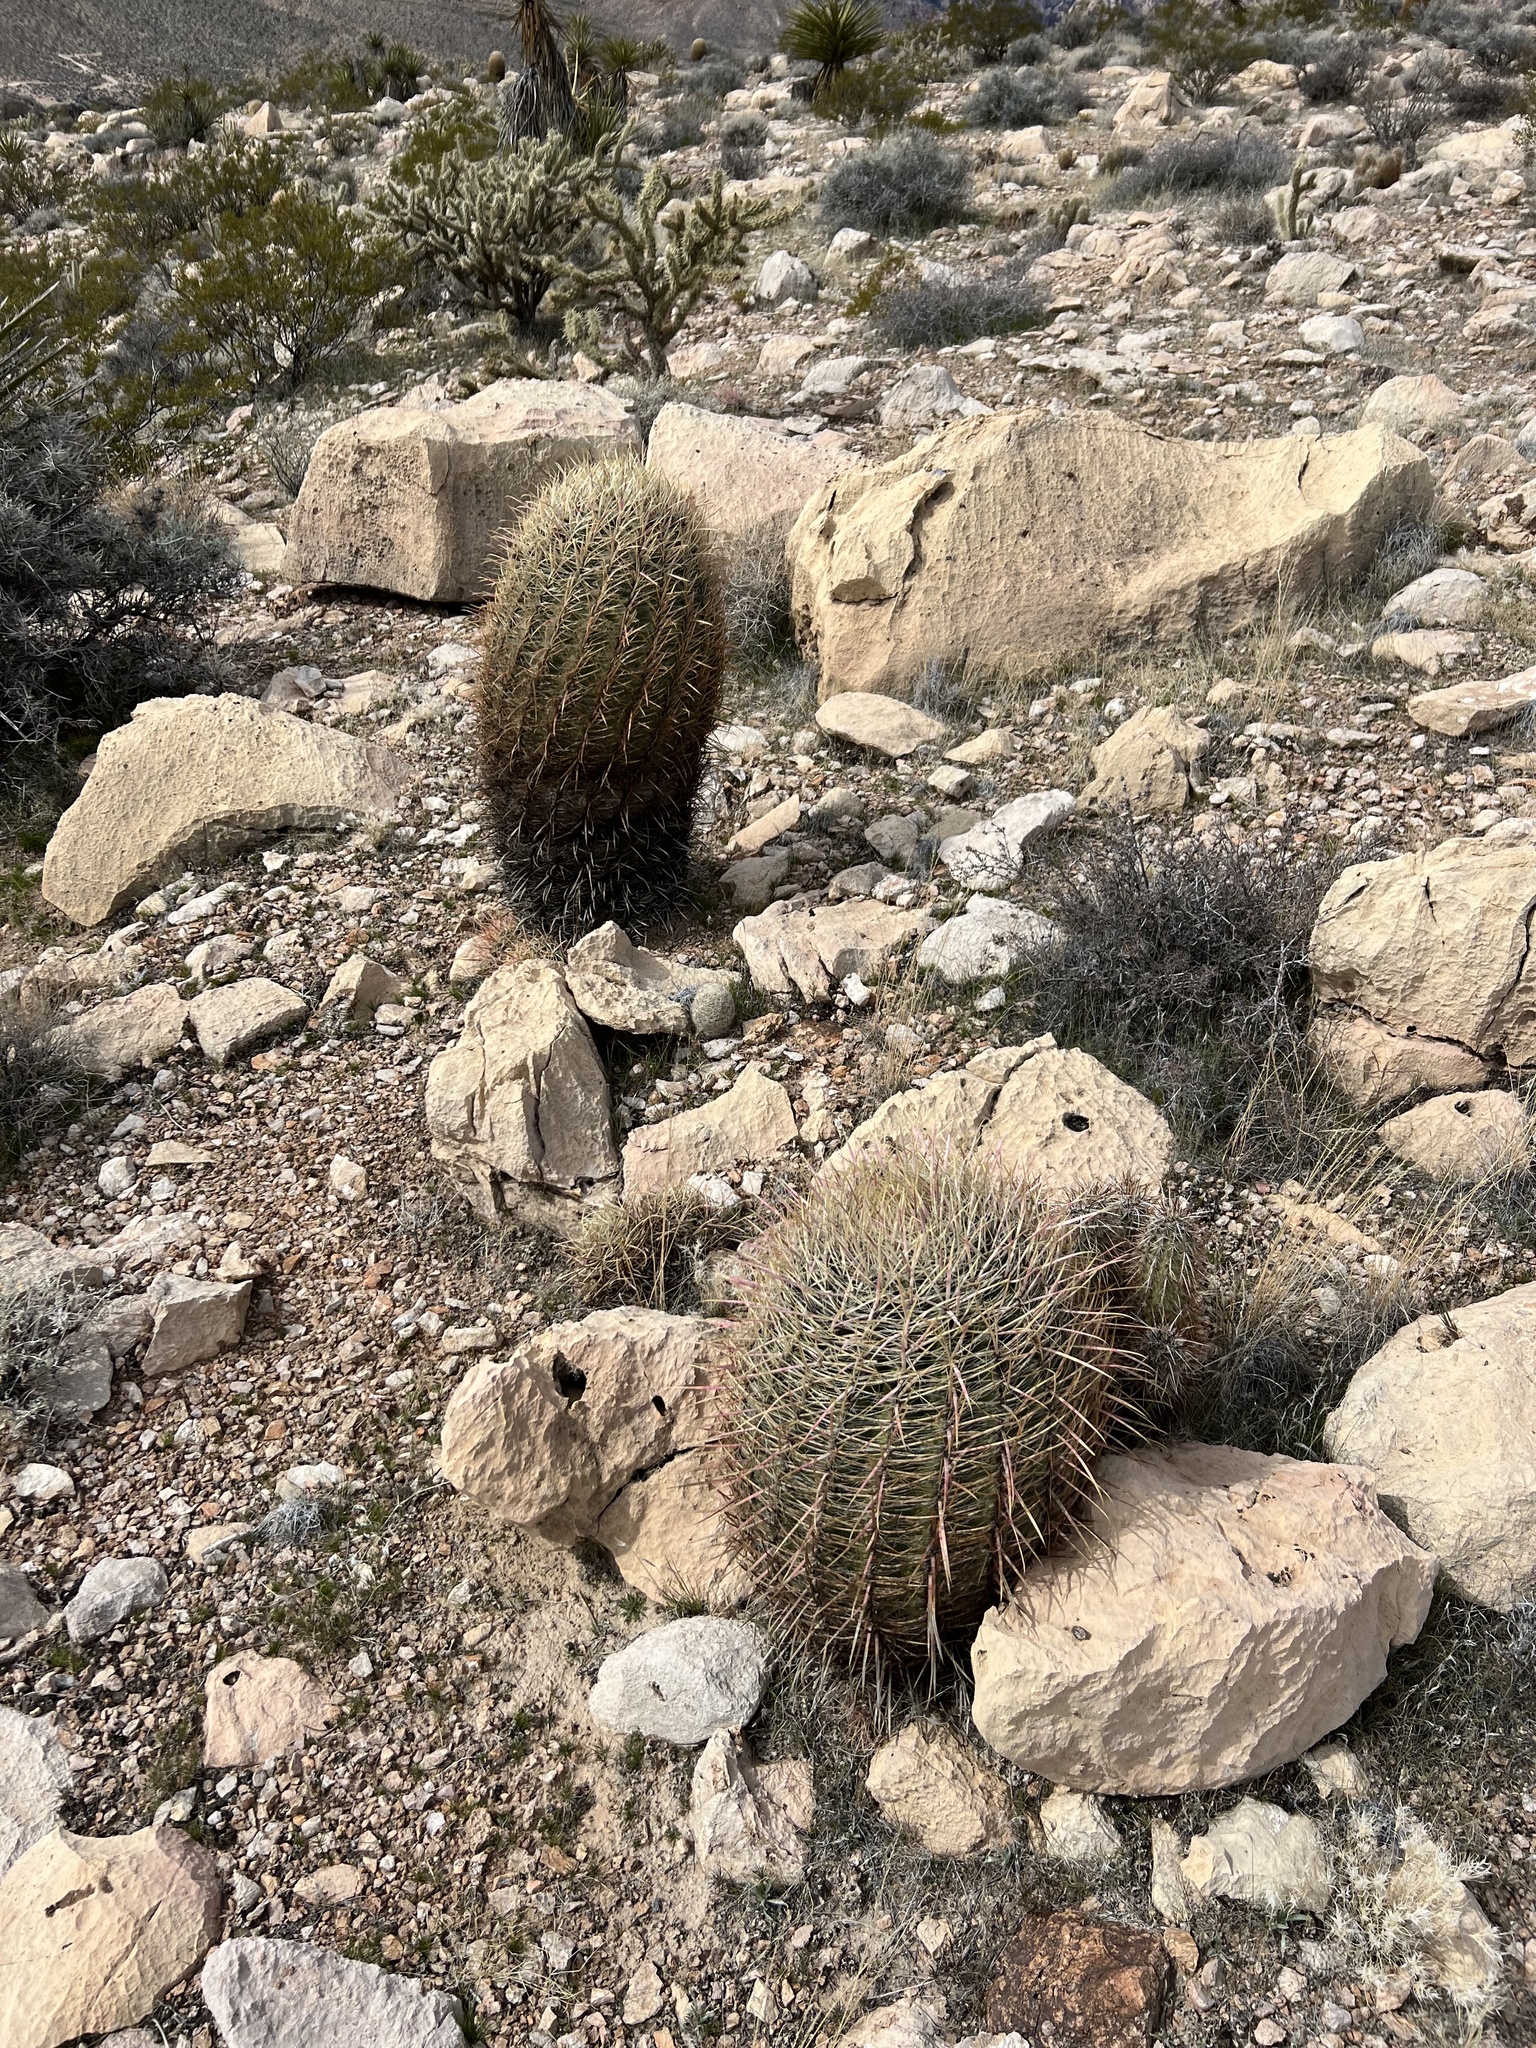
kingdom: Plantae
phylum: Tracheophyta
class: Magnoliopsida
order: Caryophyllales
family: Cactaceae
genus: Ferocactus
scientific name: Ferocactus cylindraceus
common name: California barrel cactus
